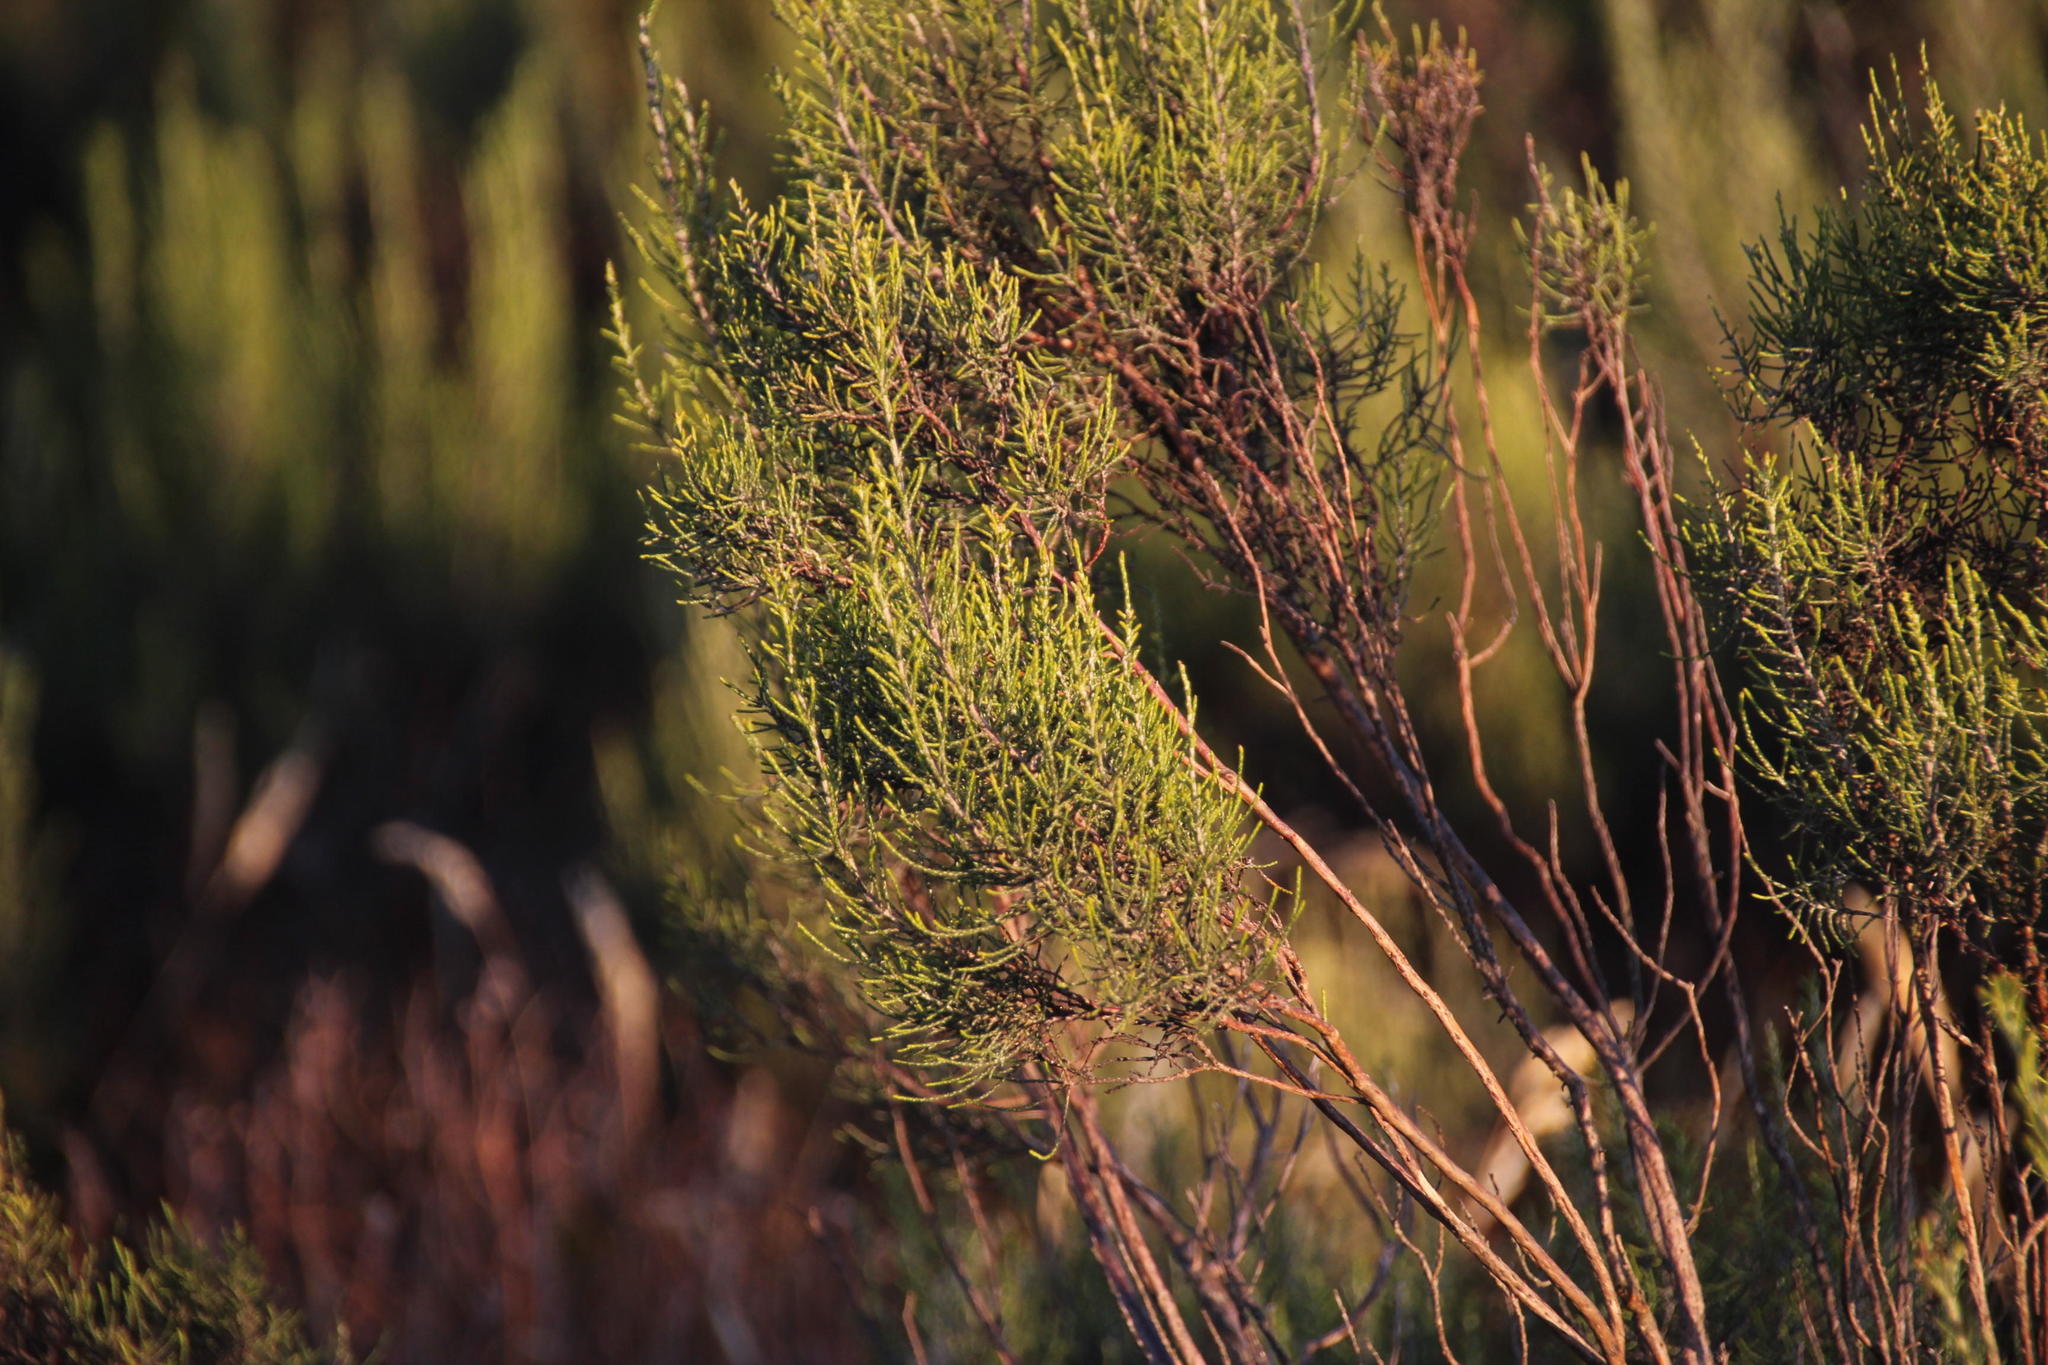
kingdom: Plantae
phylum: Tracheophyta
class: Magnoliopsida
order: Asterales
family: Asteraceae
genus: Dicerothamnus
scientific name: Dicerothamnus rhinocerotis
